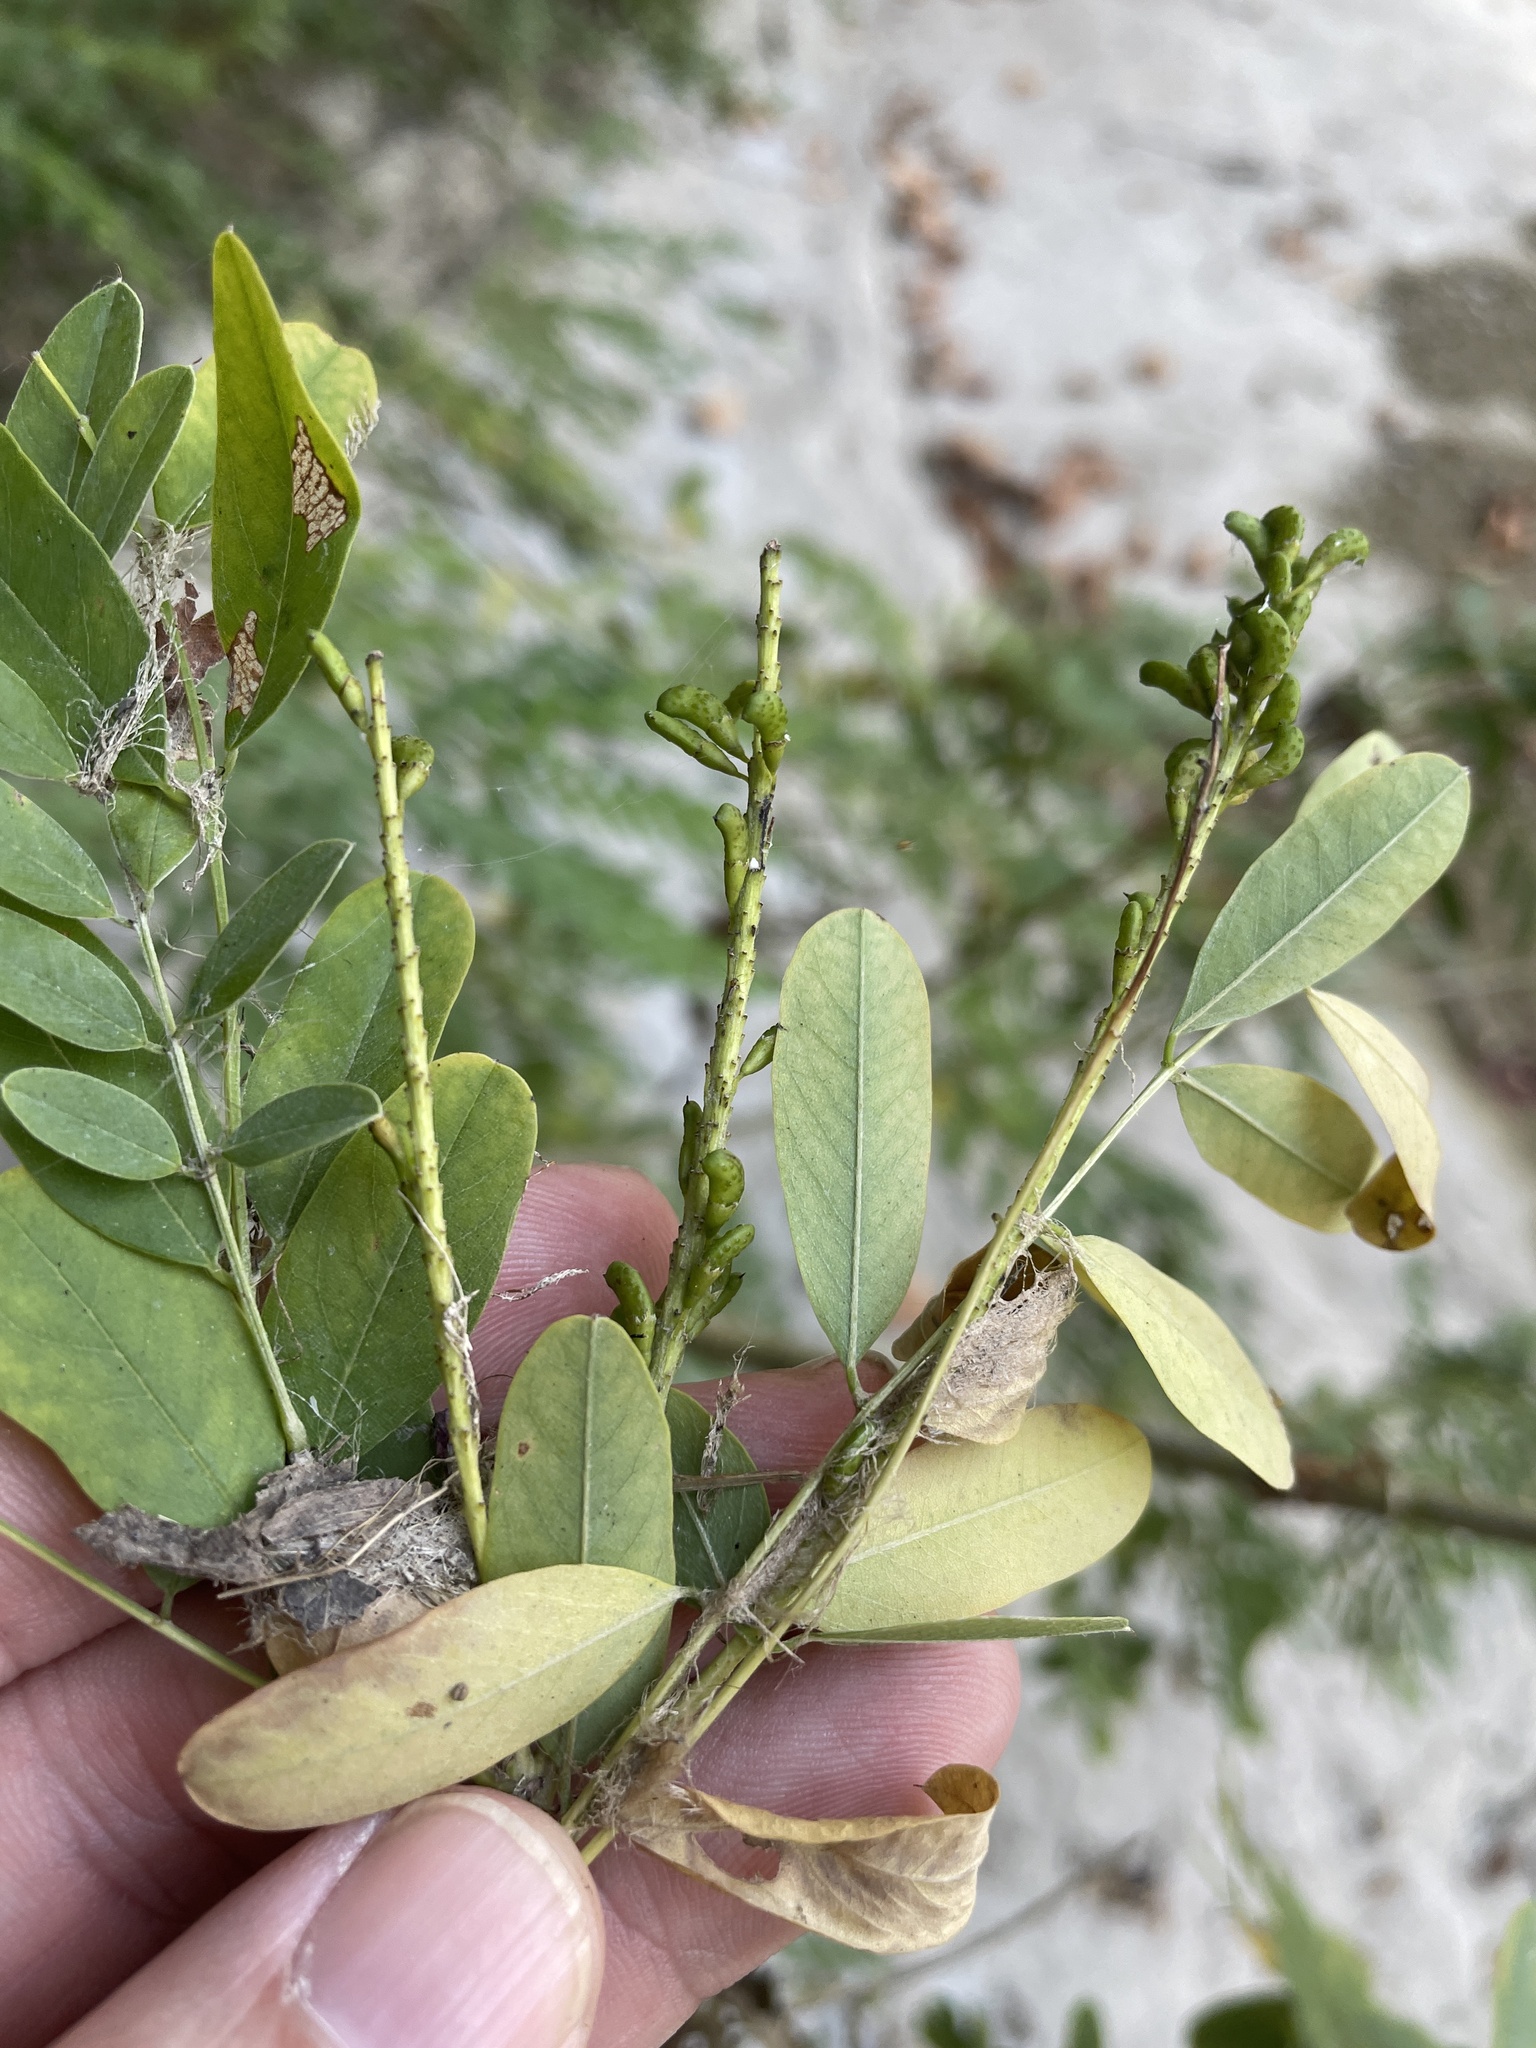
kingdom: Plantae
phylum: Tracheophyta
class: Magnoliopsida
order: Fabales
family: Fabaceae
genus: Amorpha
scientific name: Amorpha fruticosa
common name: False indigo
